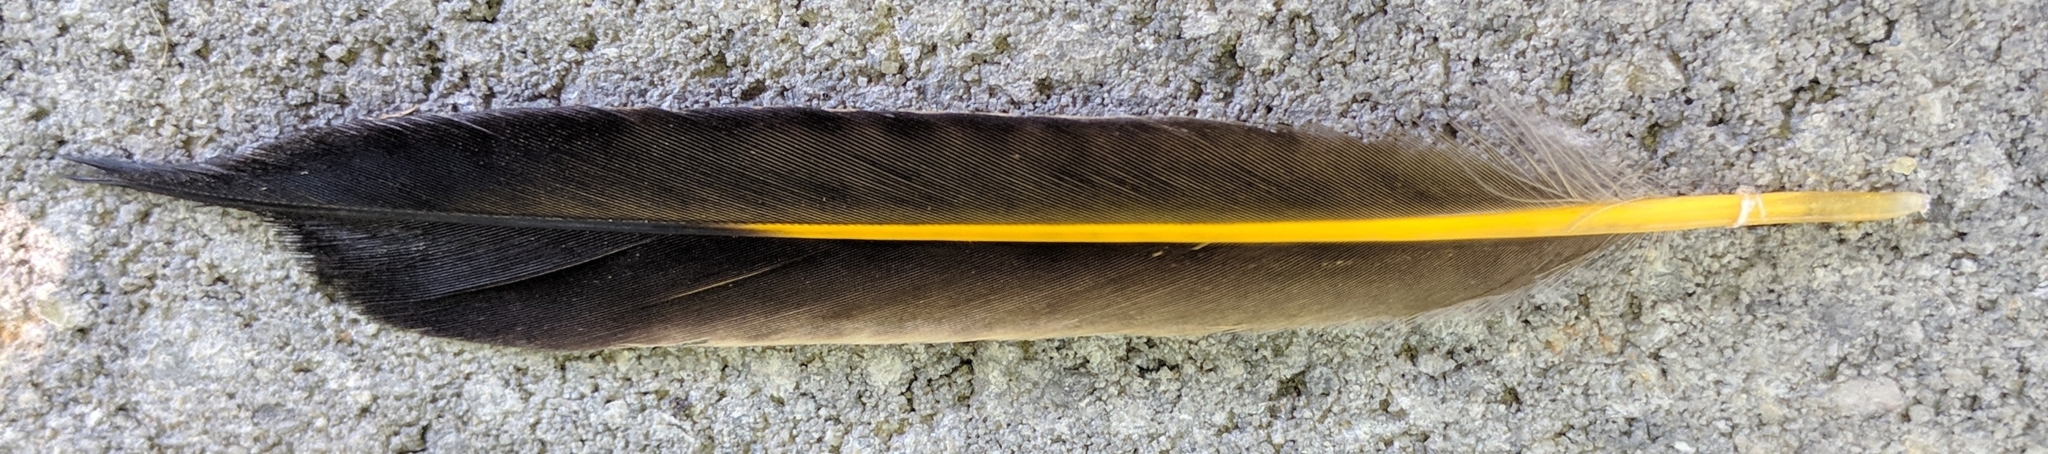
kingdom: Animalia
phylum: Chordata
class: Aves
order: Piciformes
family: Picidae
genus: Colaptes
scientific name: Colaptes auratus
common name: Northern flicker
